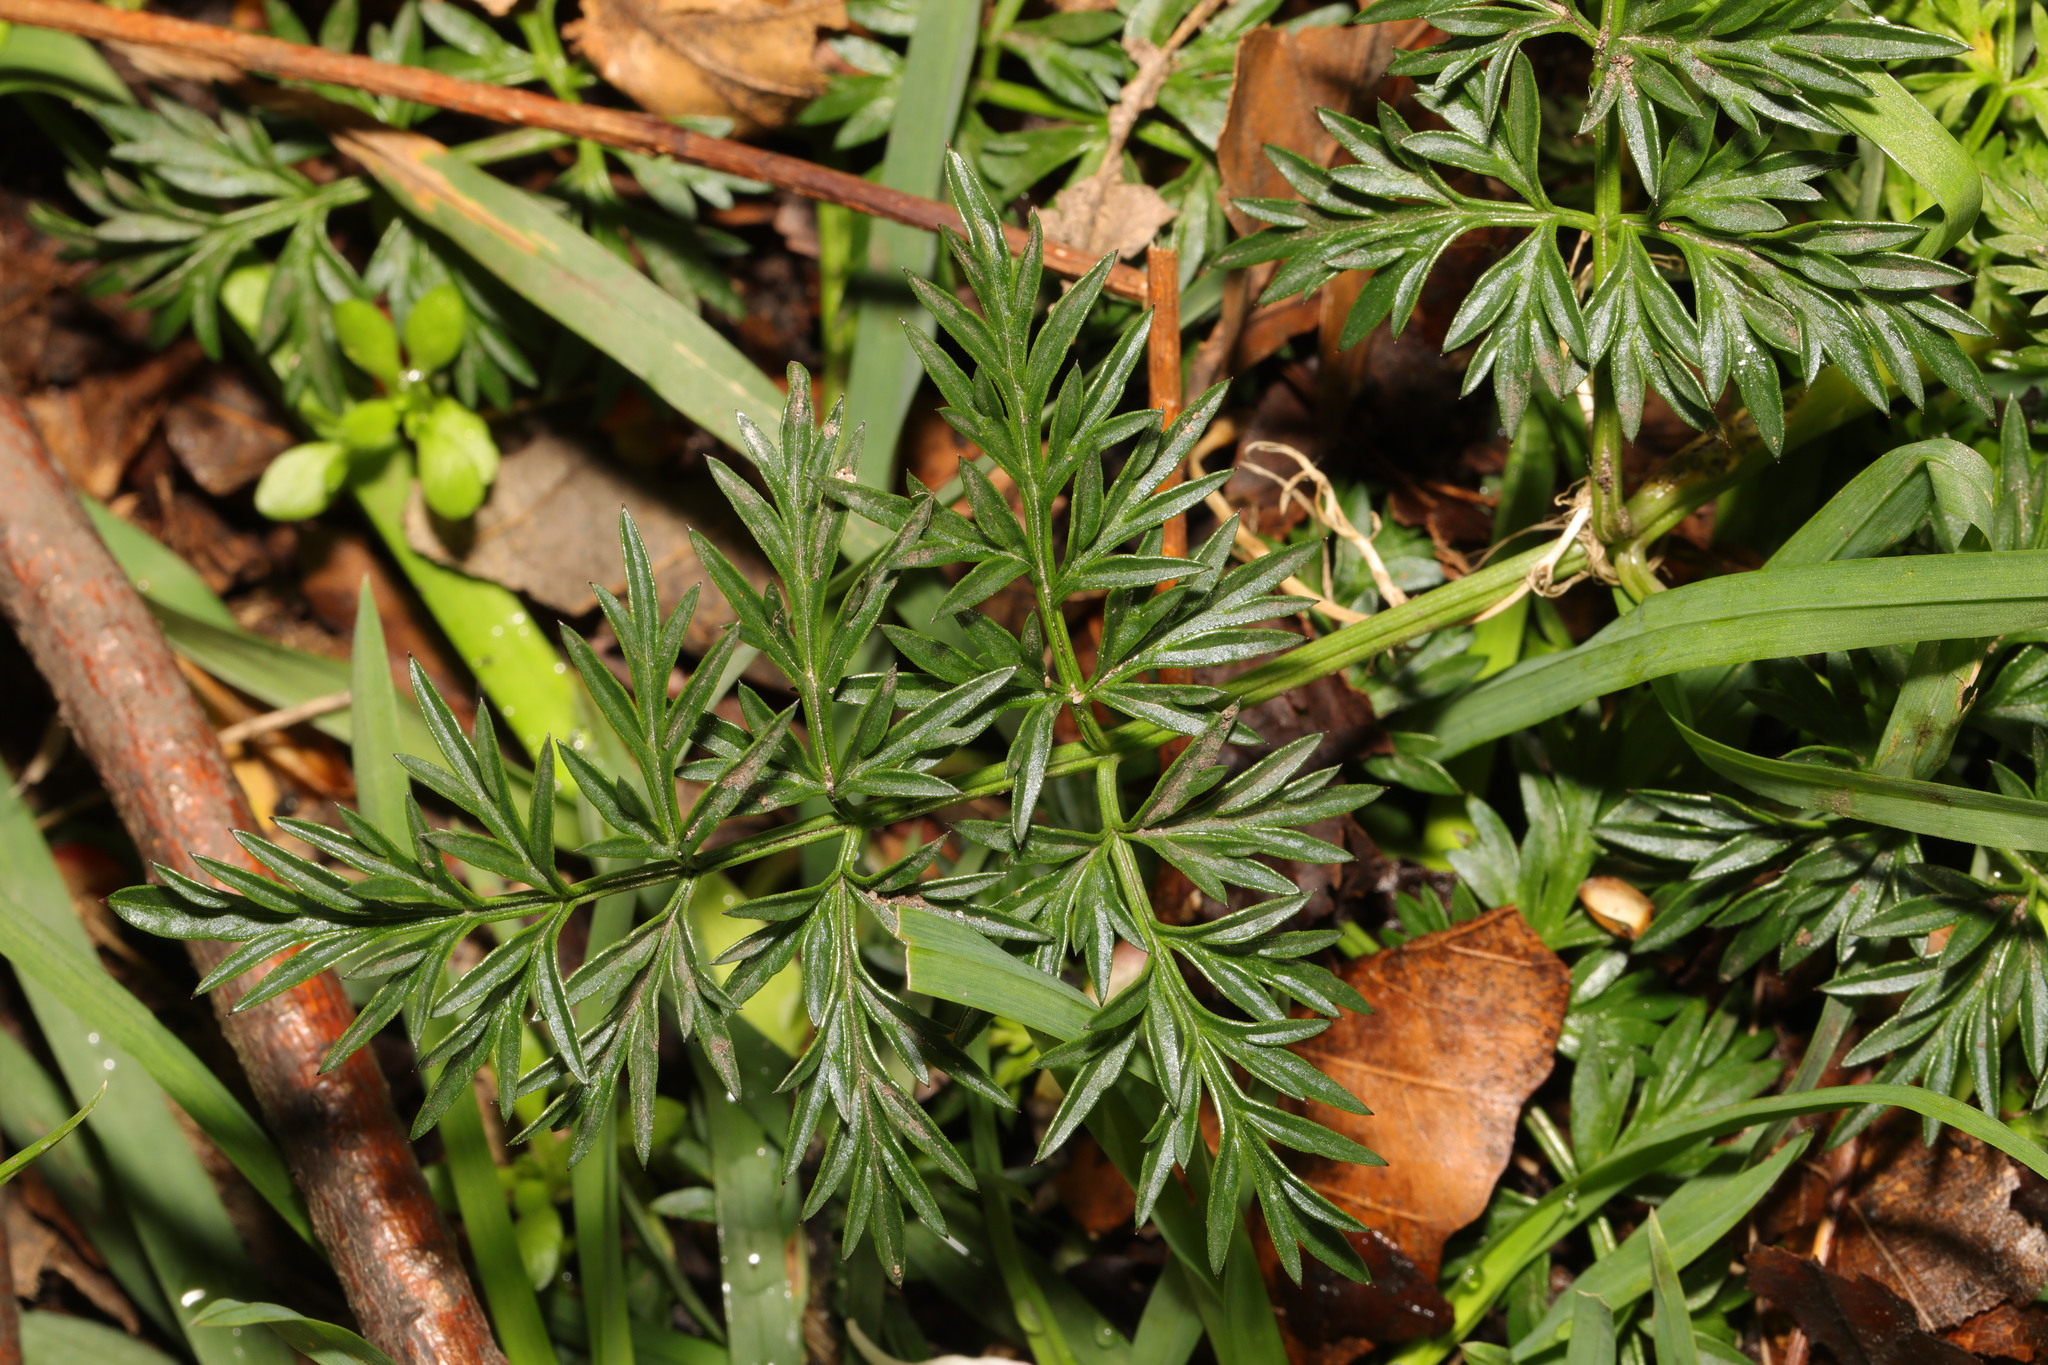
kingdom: Plantae
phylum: Tracheophyta
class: Magnoliopsida
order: Apiales
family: Apiaceae
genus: Conopodium
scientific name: Conopodium majus
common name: Pignut
